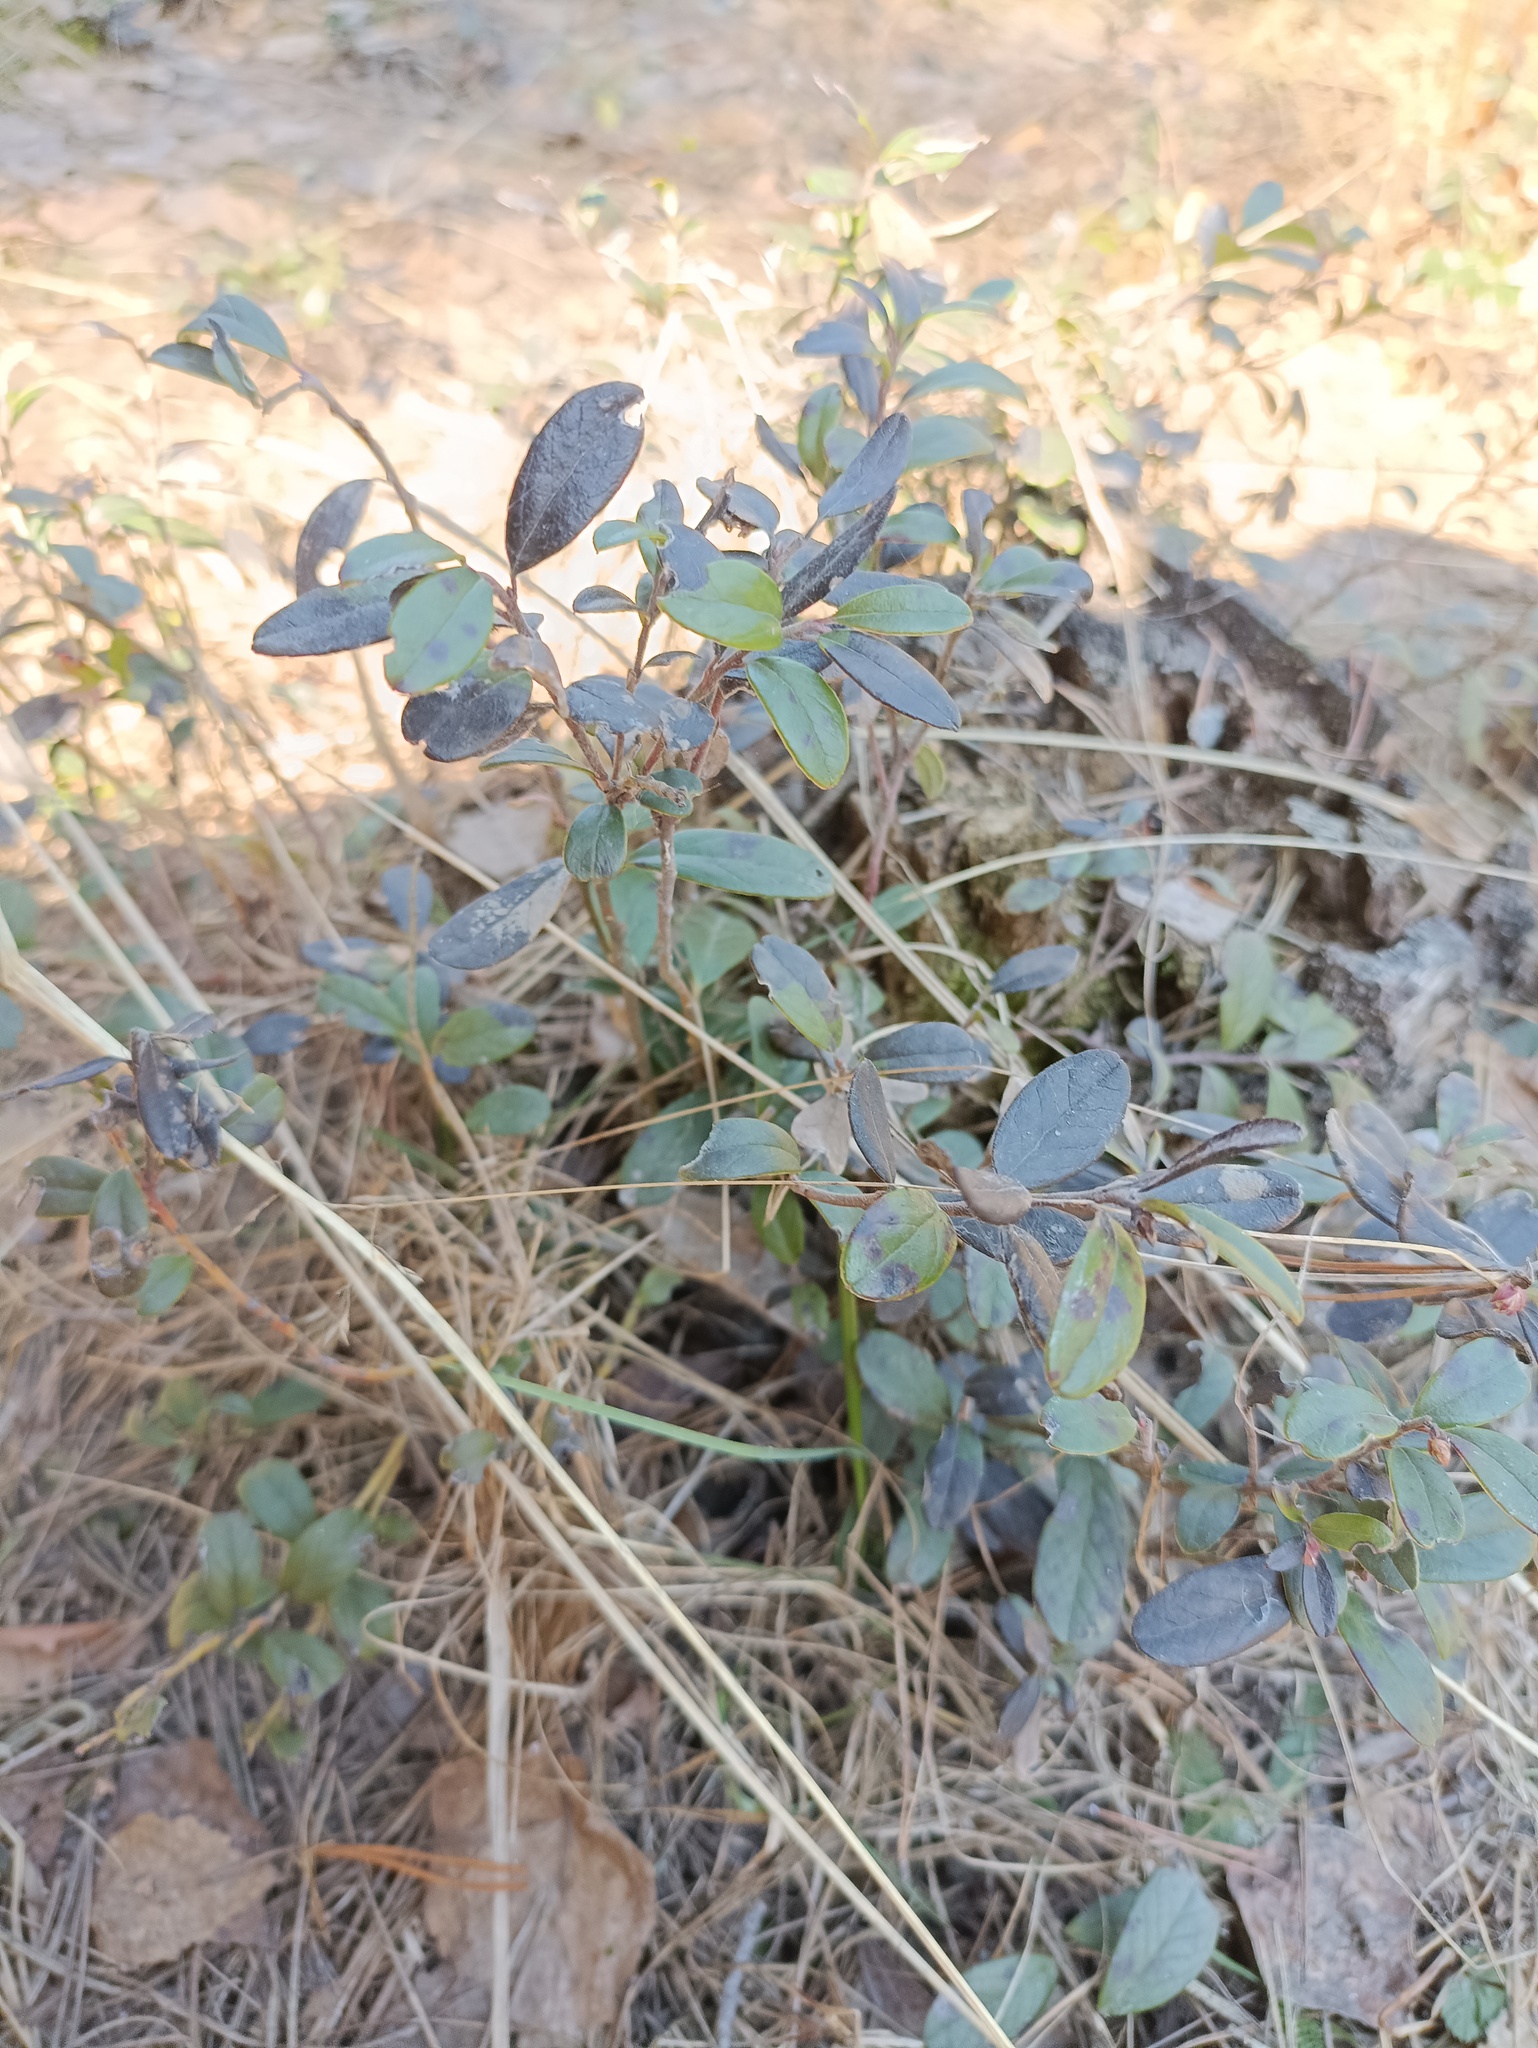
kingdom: Plantae
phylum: Tracheophyta
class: Magnoliopsida
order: Ericales
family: Ericaceae
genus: Vaccinium
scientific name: Vaccinium vitis-idaea
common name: Cowberry
